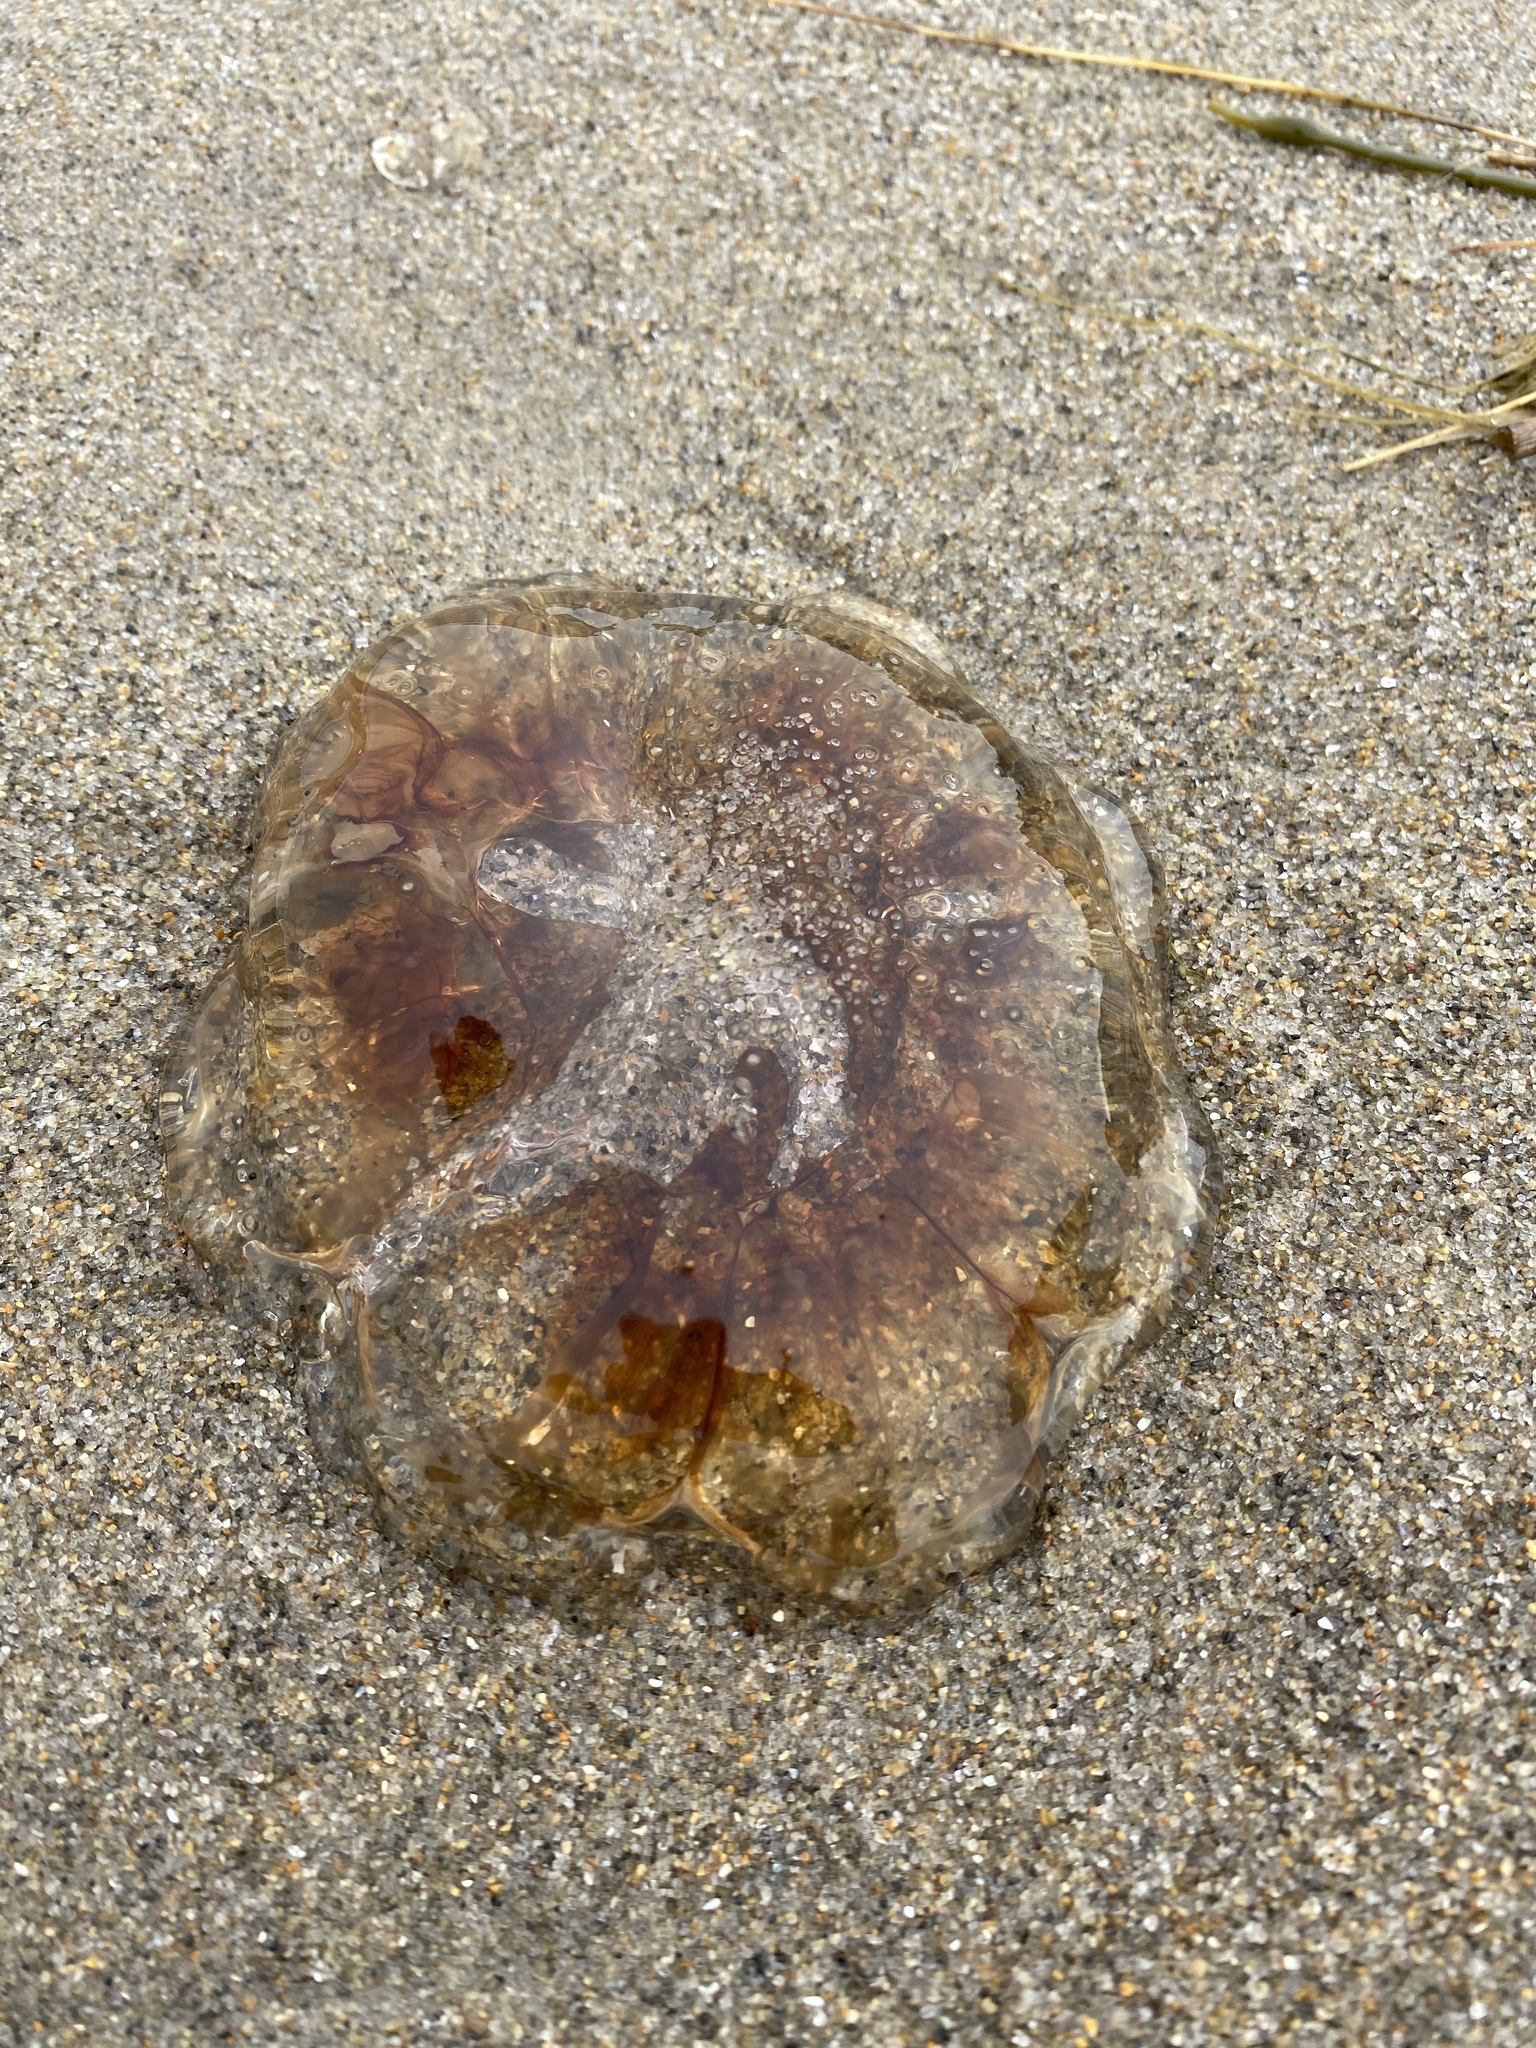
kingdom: Animalia
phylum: Cnidaria
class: Scyphozoa
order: Semaeostomeae
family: Cyaneidae
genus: Cyanea
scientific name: Cyanea fulva
